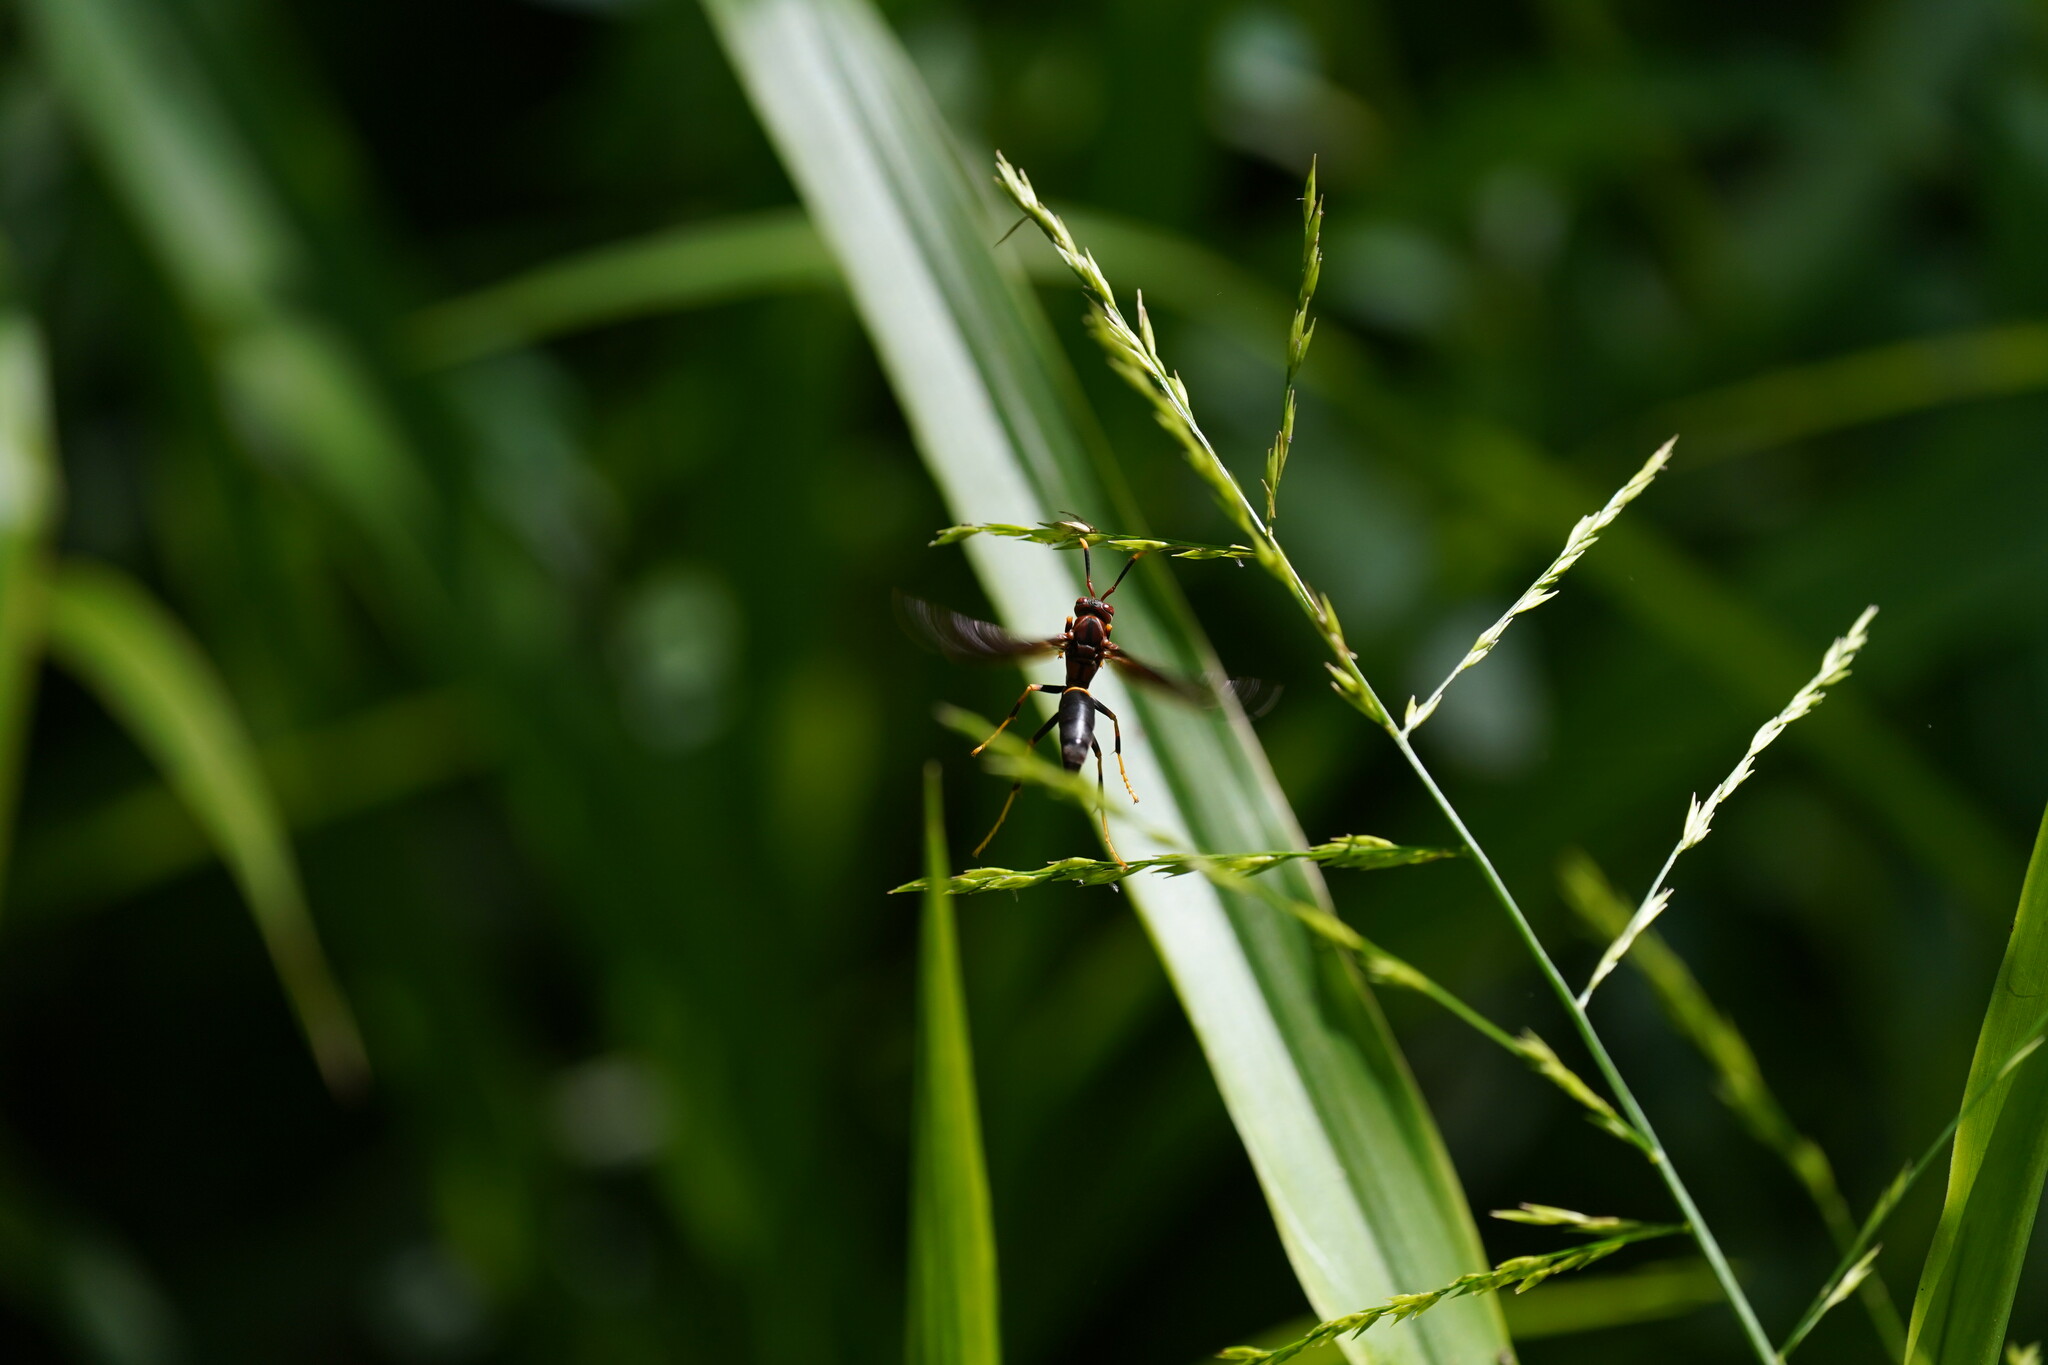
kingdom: Animalia
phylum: Arthropoda
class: Insecta
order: Hymenoptera
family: Eumenidae
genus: Polistes
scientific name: Polistes annularis
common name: Ringed paper wasp
